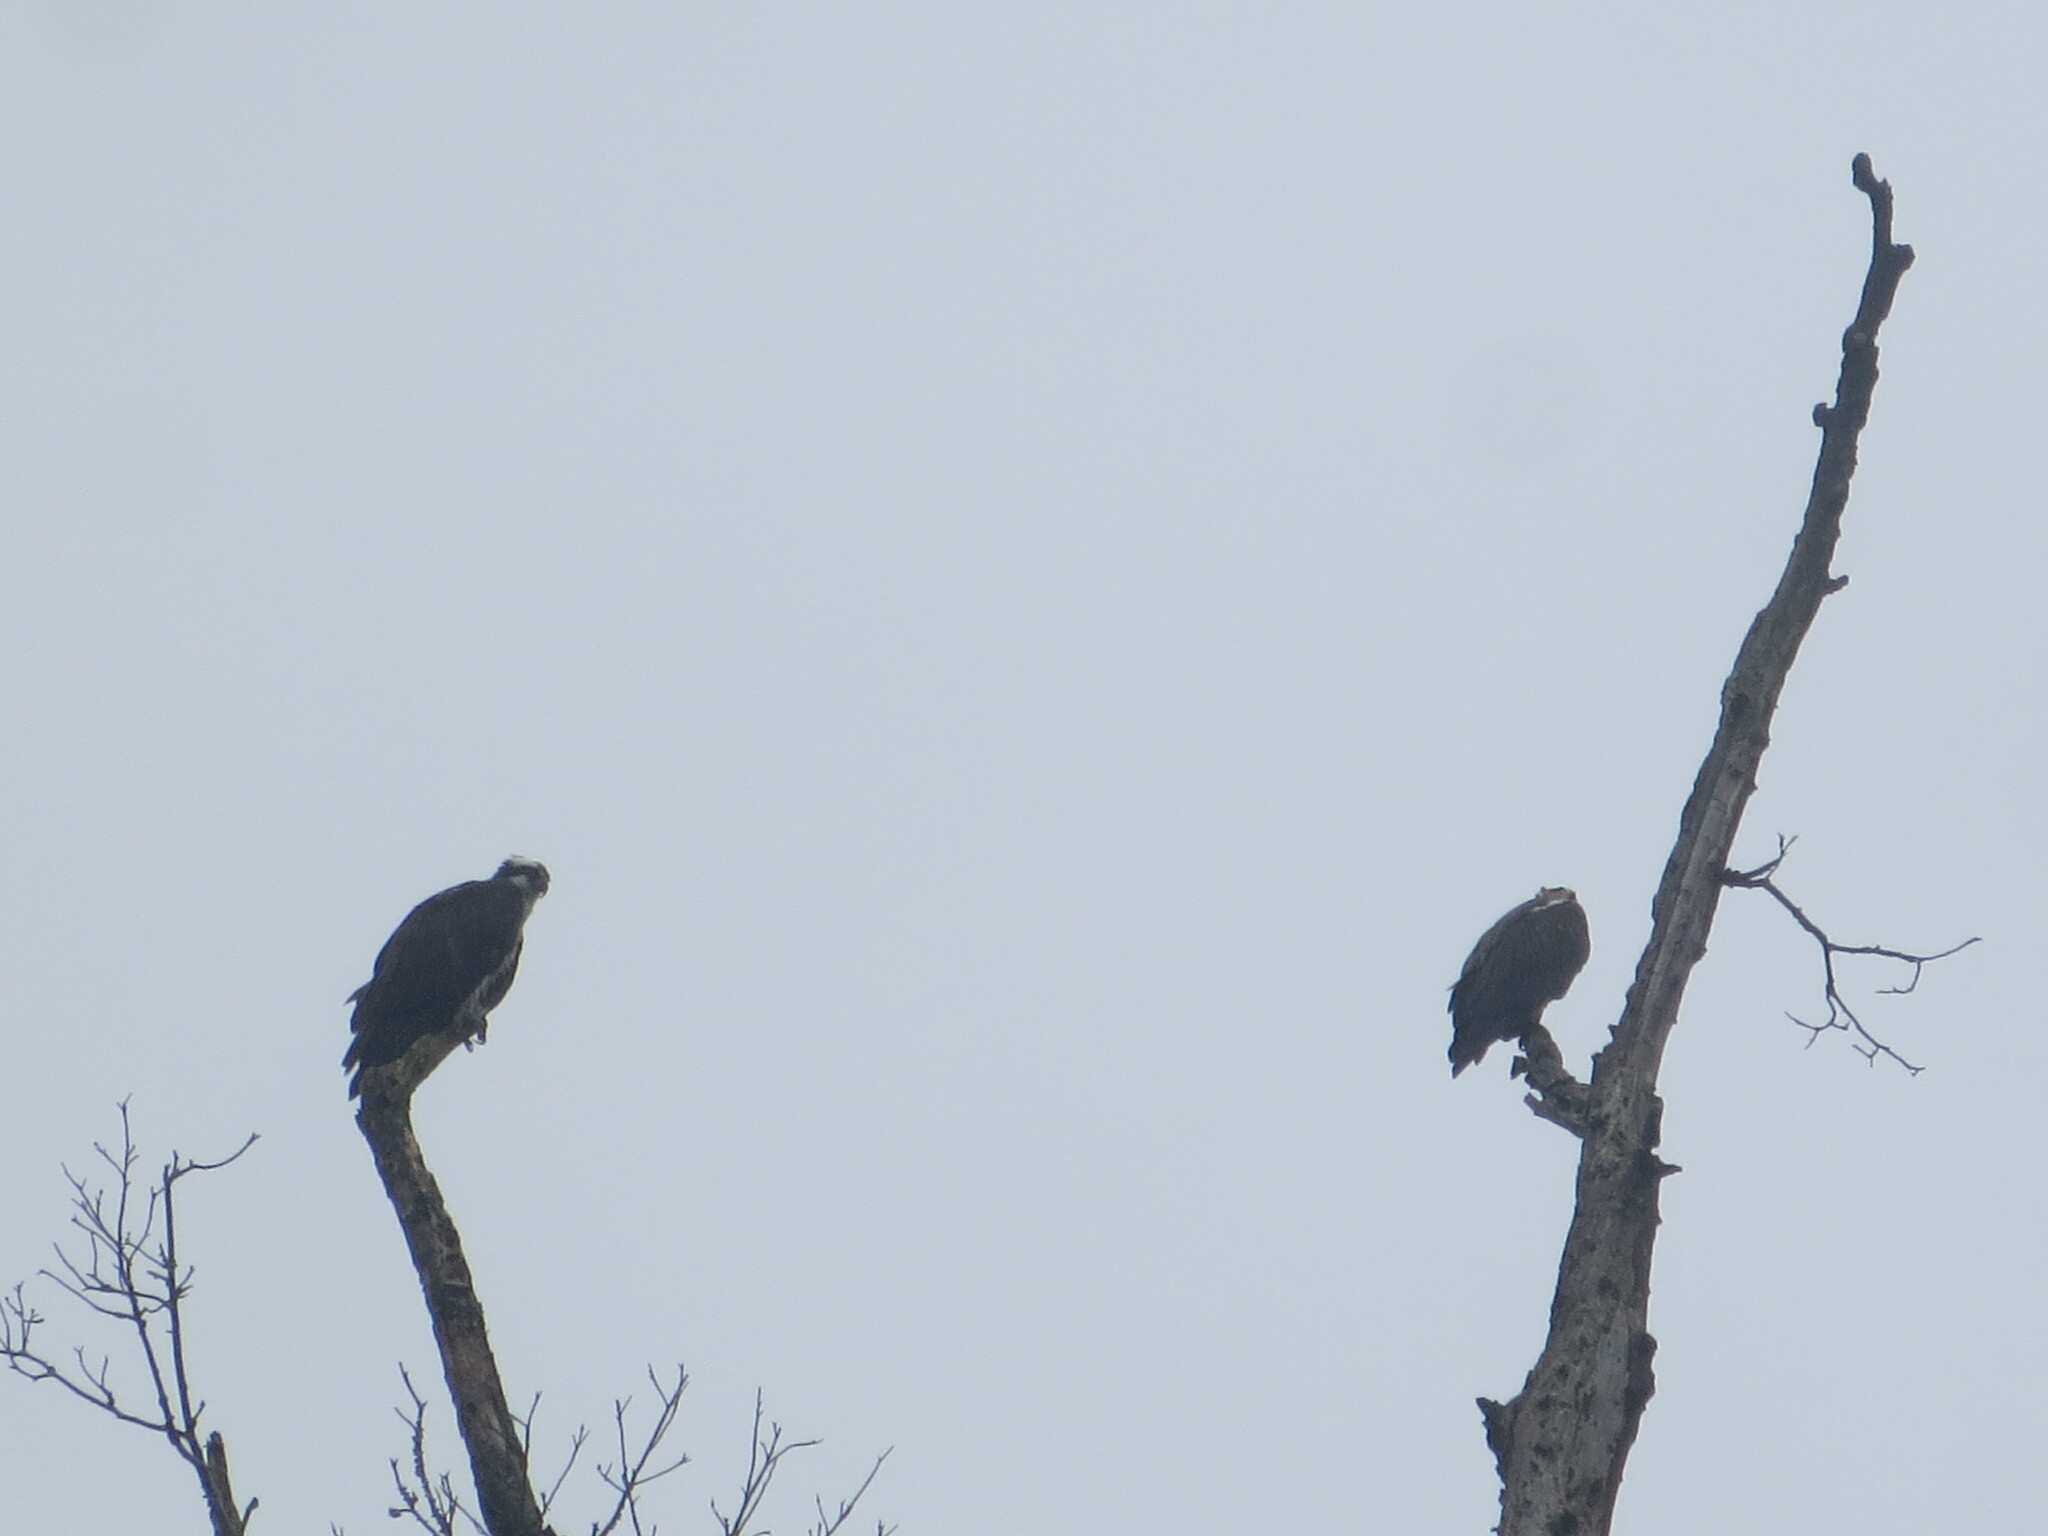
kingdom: Animalia
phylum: Chordata
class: Aves
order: Accipitriformes
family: Pandionidae
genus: Pandion
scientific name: Pandion haliaetus
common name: Osprey
